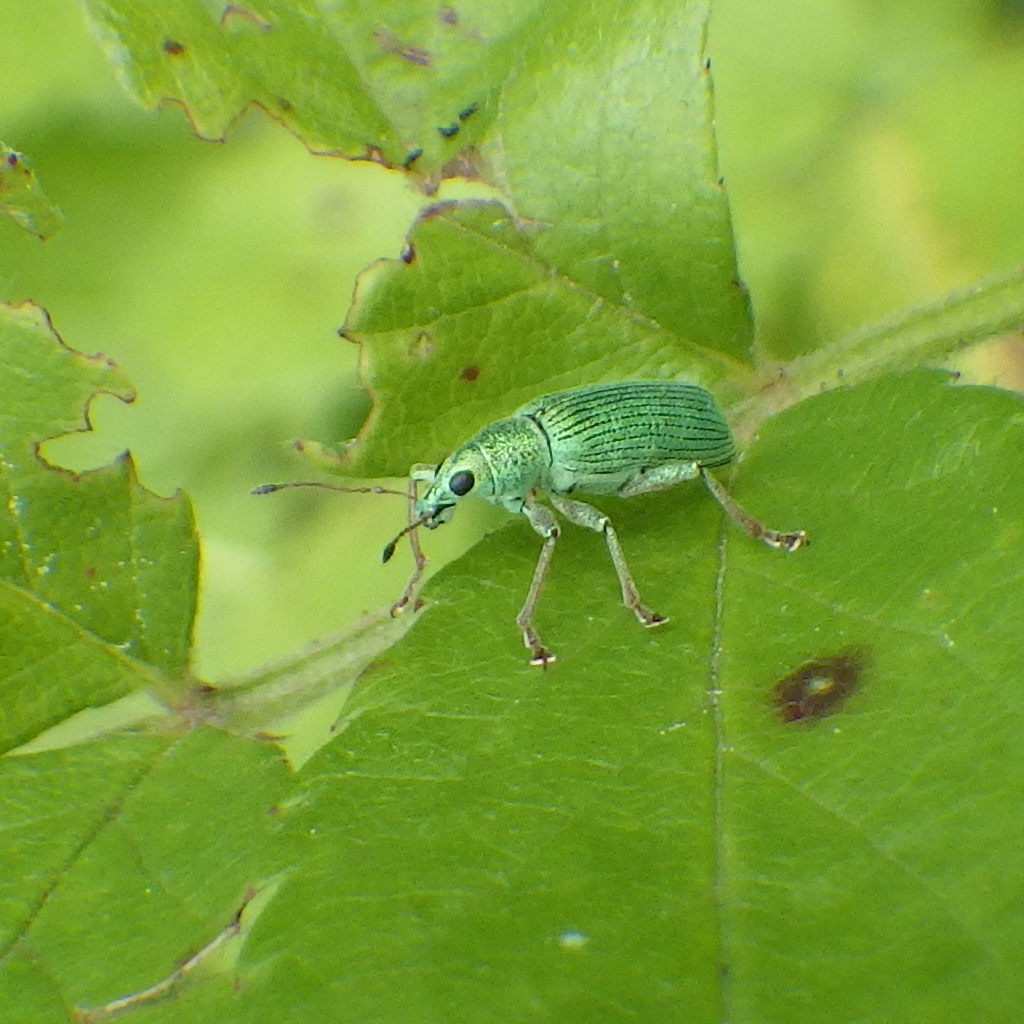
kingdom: Animalia
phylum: Arthropoda
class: Insecta
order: Coleoptera
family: Curculionidae
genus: Polydrusus
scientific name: Polydrusus formosus
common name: Weevil
